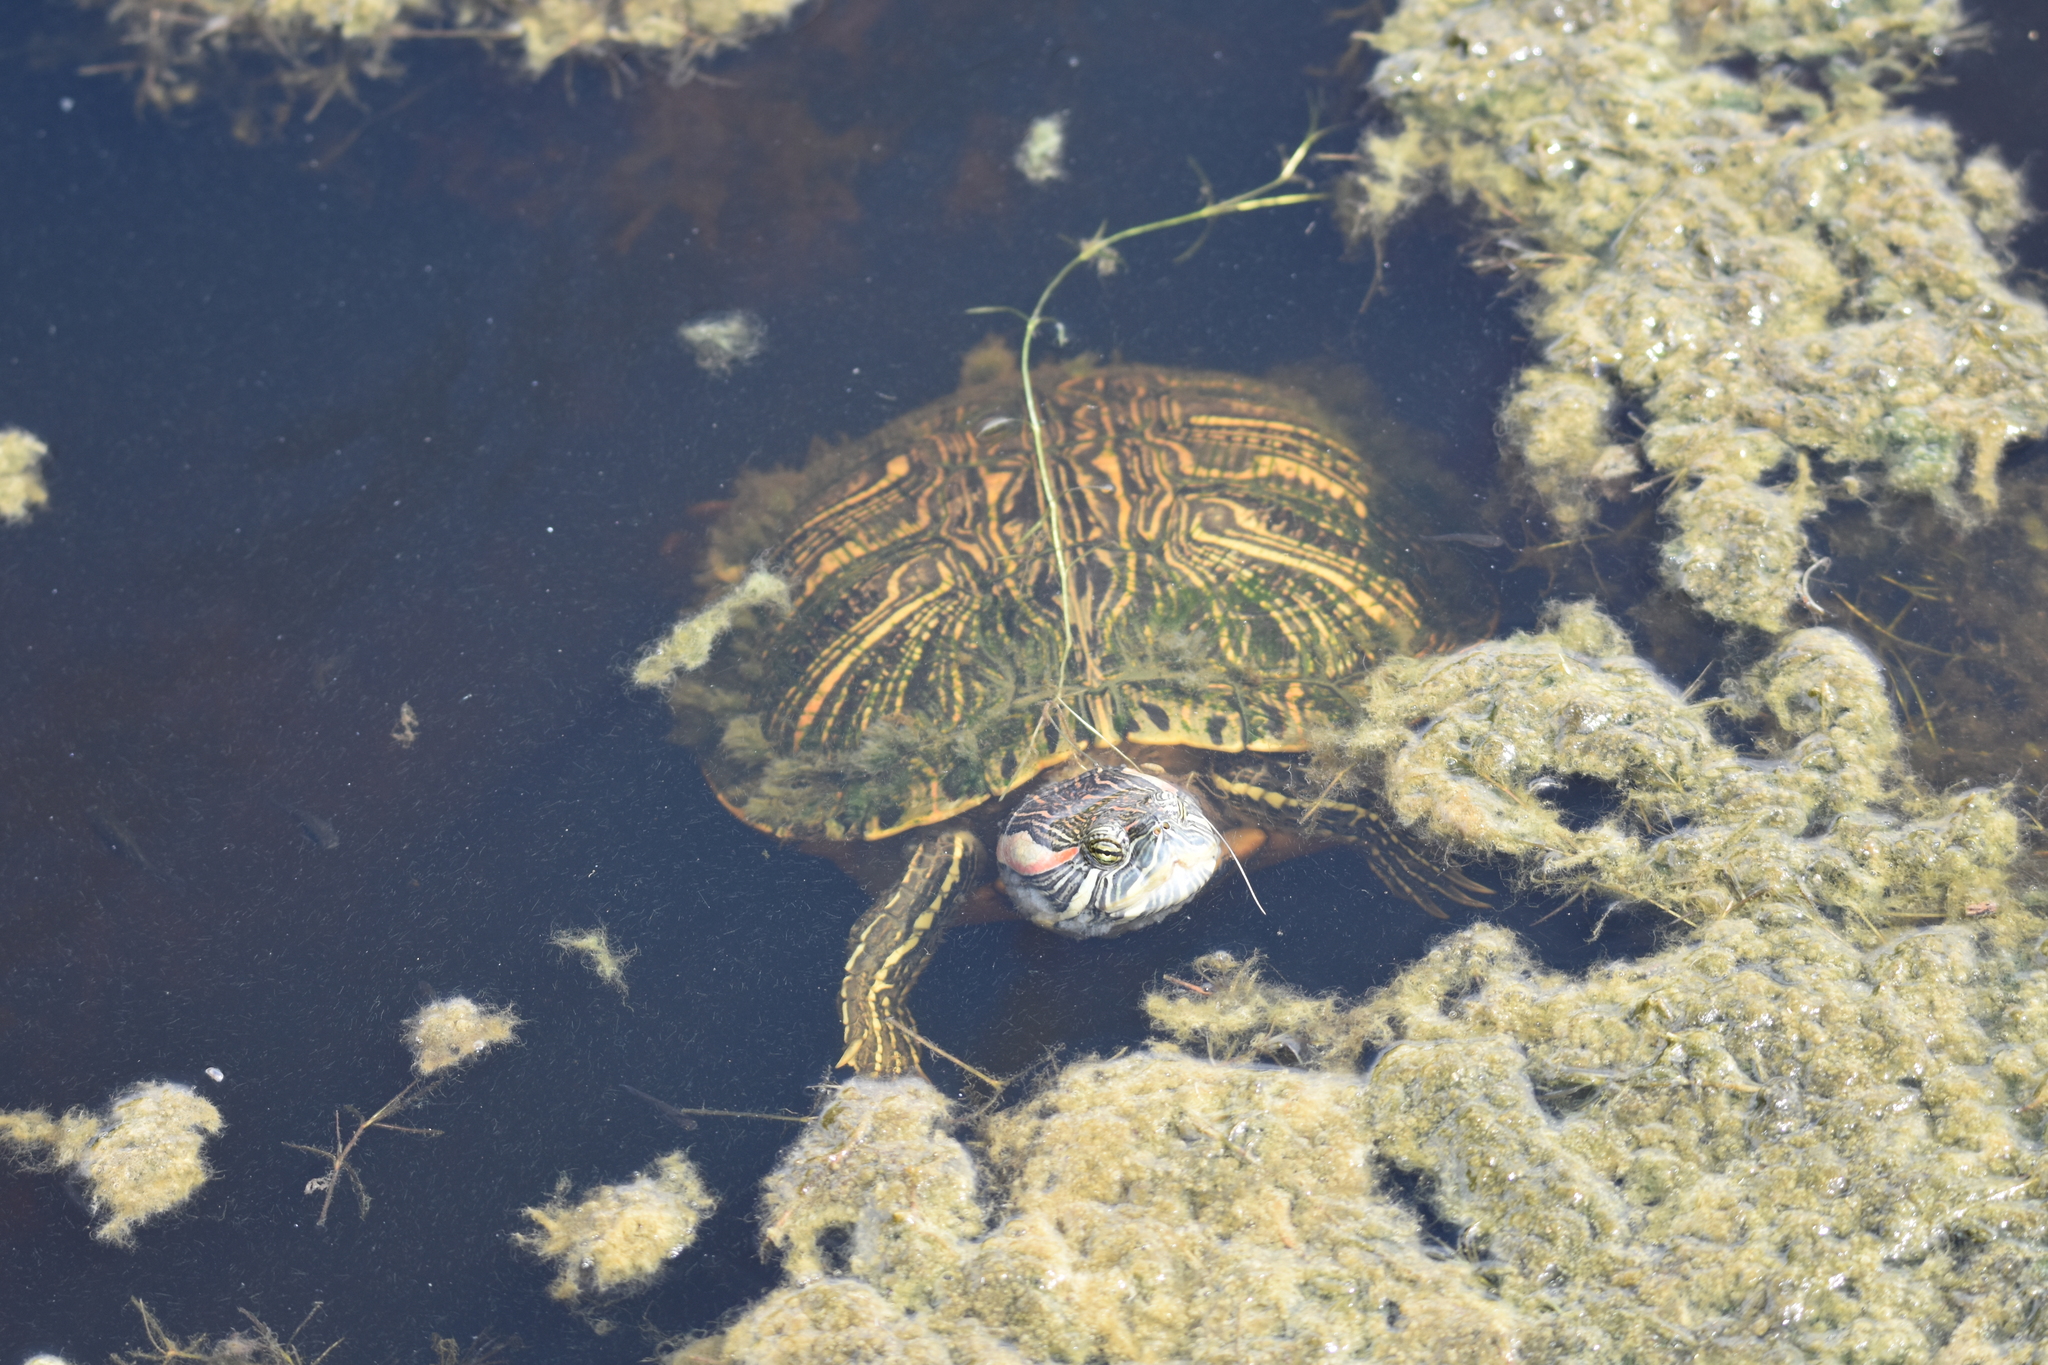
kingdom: Animalia
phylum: Chordata
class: Testudines
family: Emydidae
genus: Trachemys
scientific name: Trachemys scripta
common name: Slider
